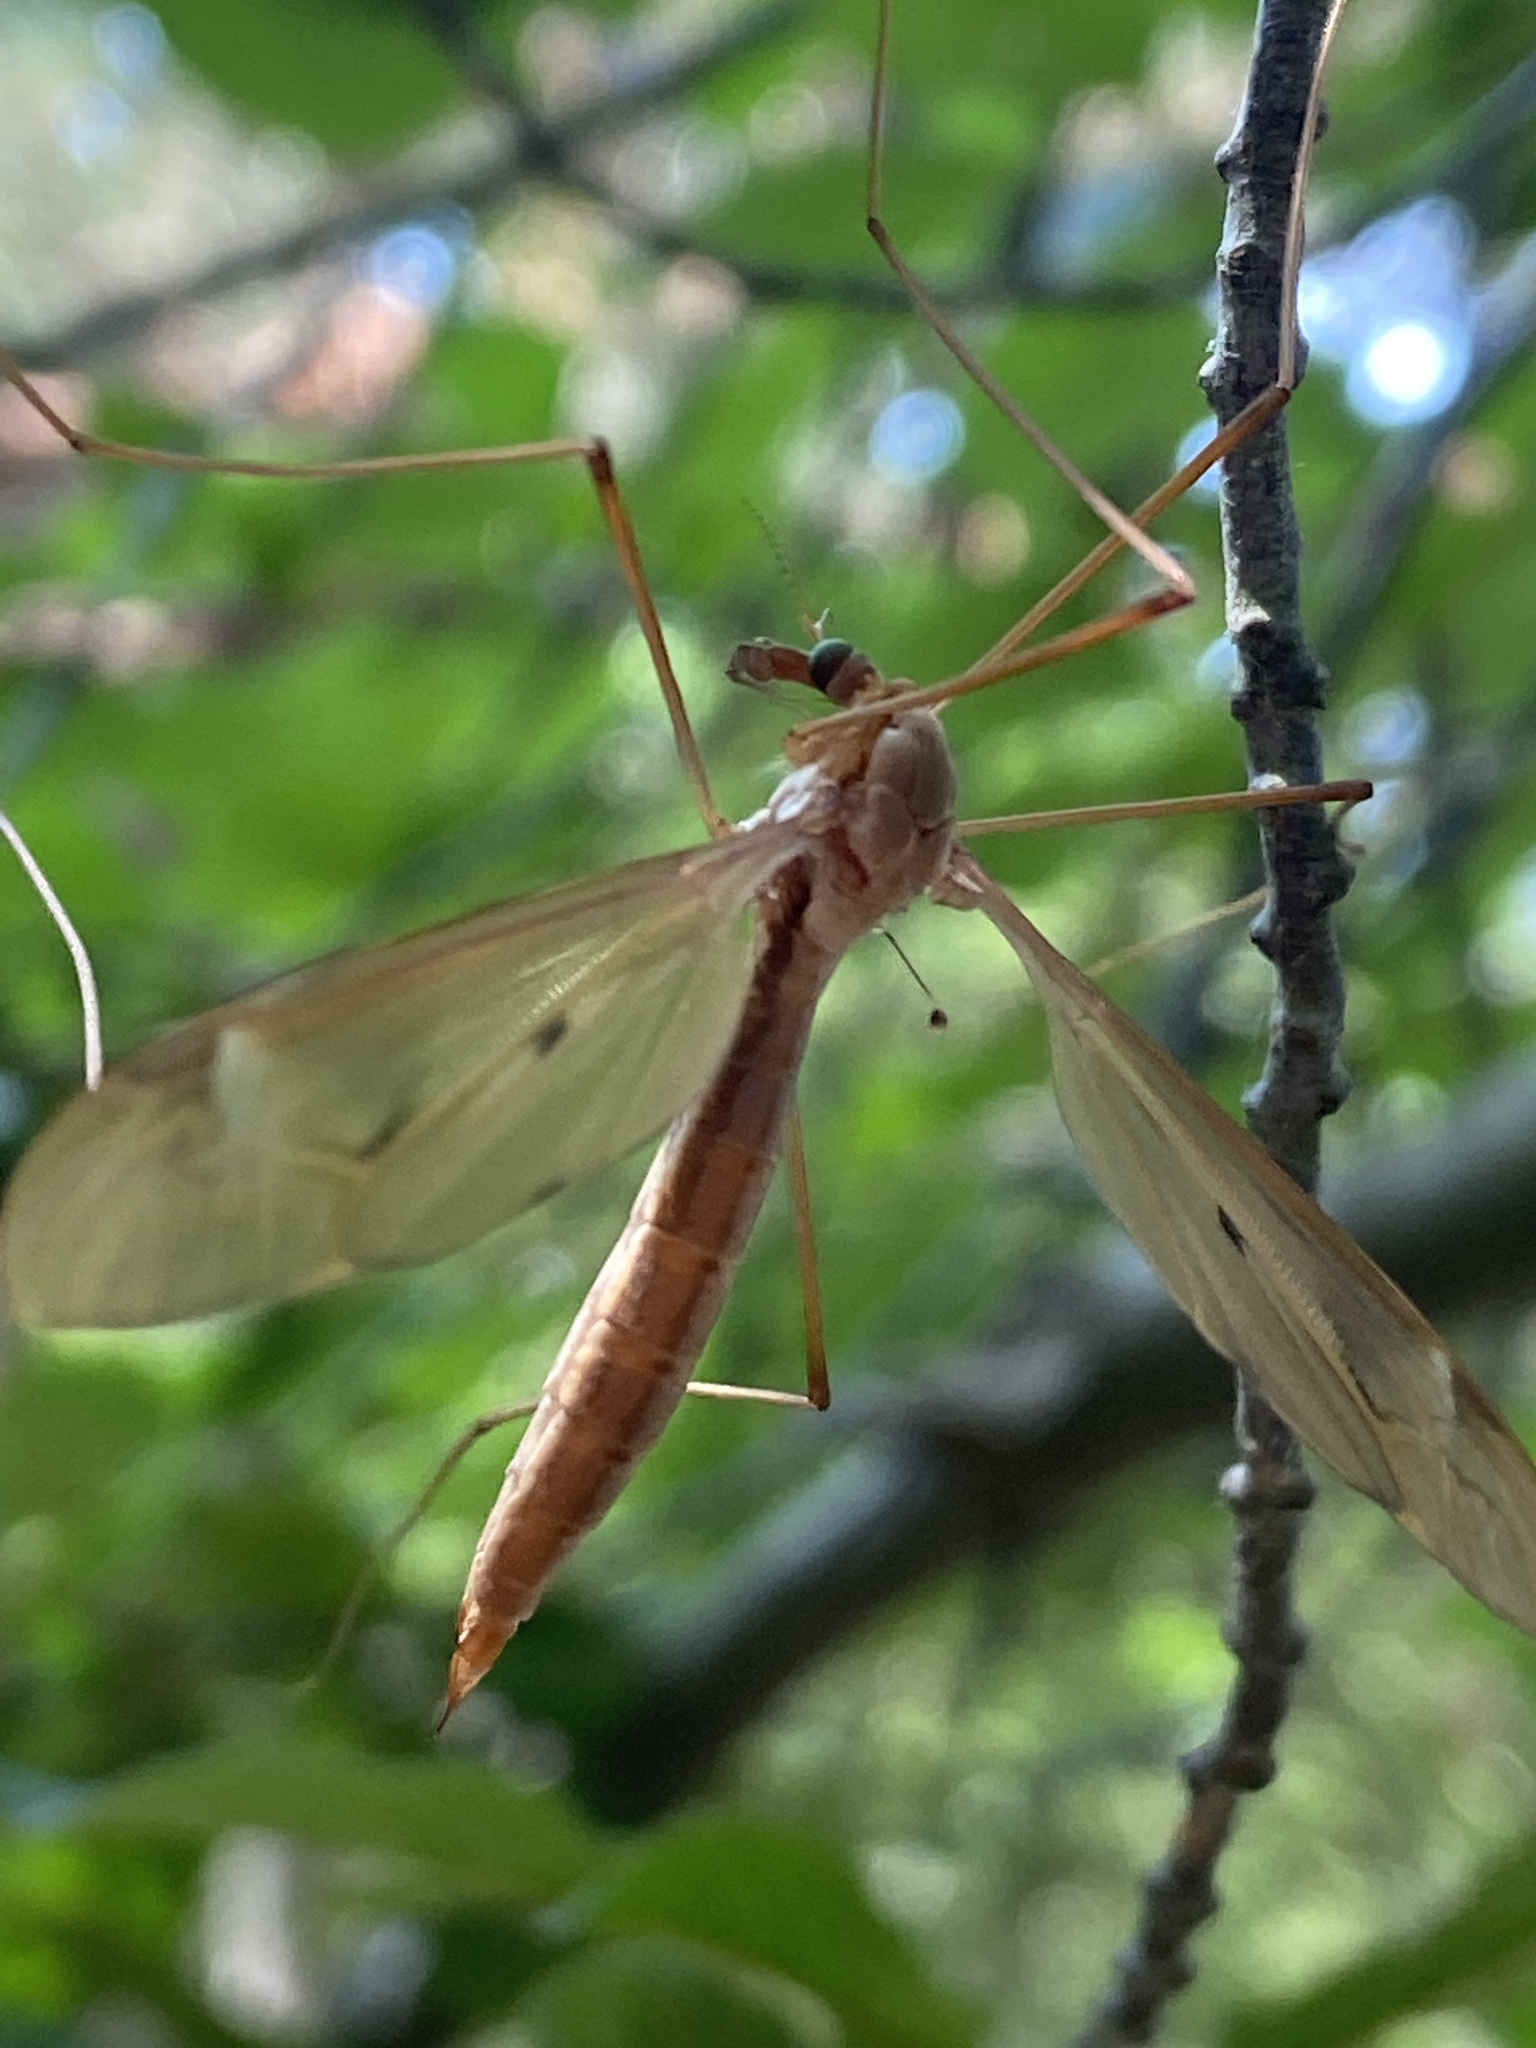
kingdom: Animalia
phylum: Arthropoda
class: Insecta
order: Diptera
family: Tipulidae
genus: Tipula
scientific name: Tipula fulvipennis
